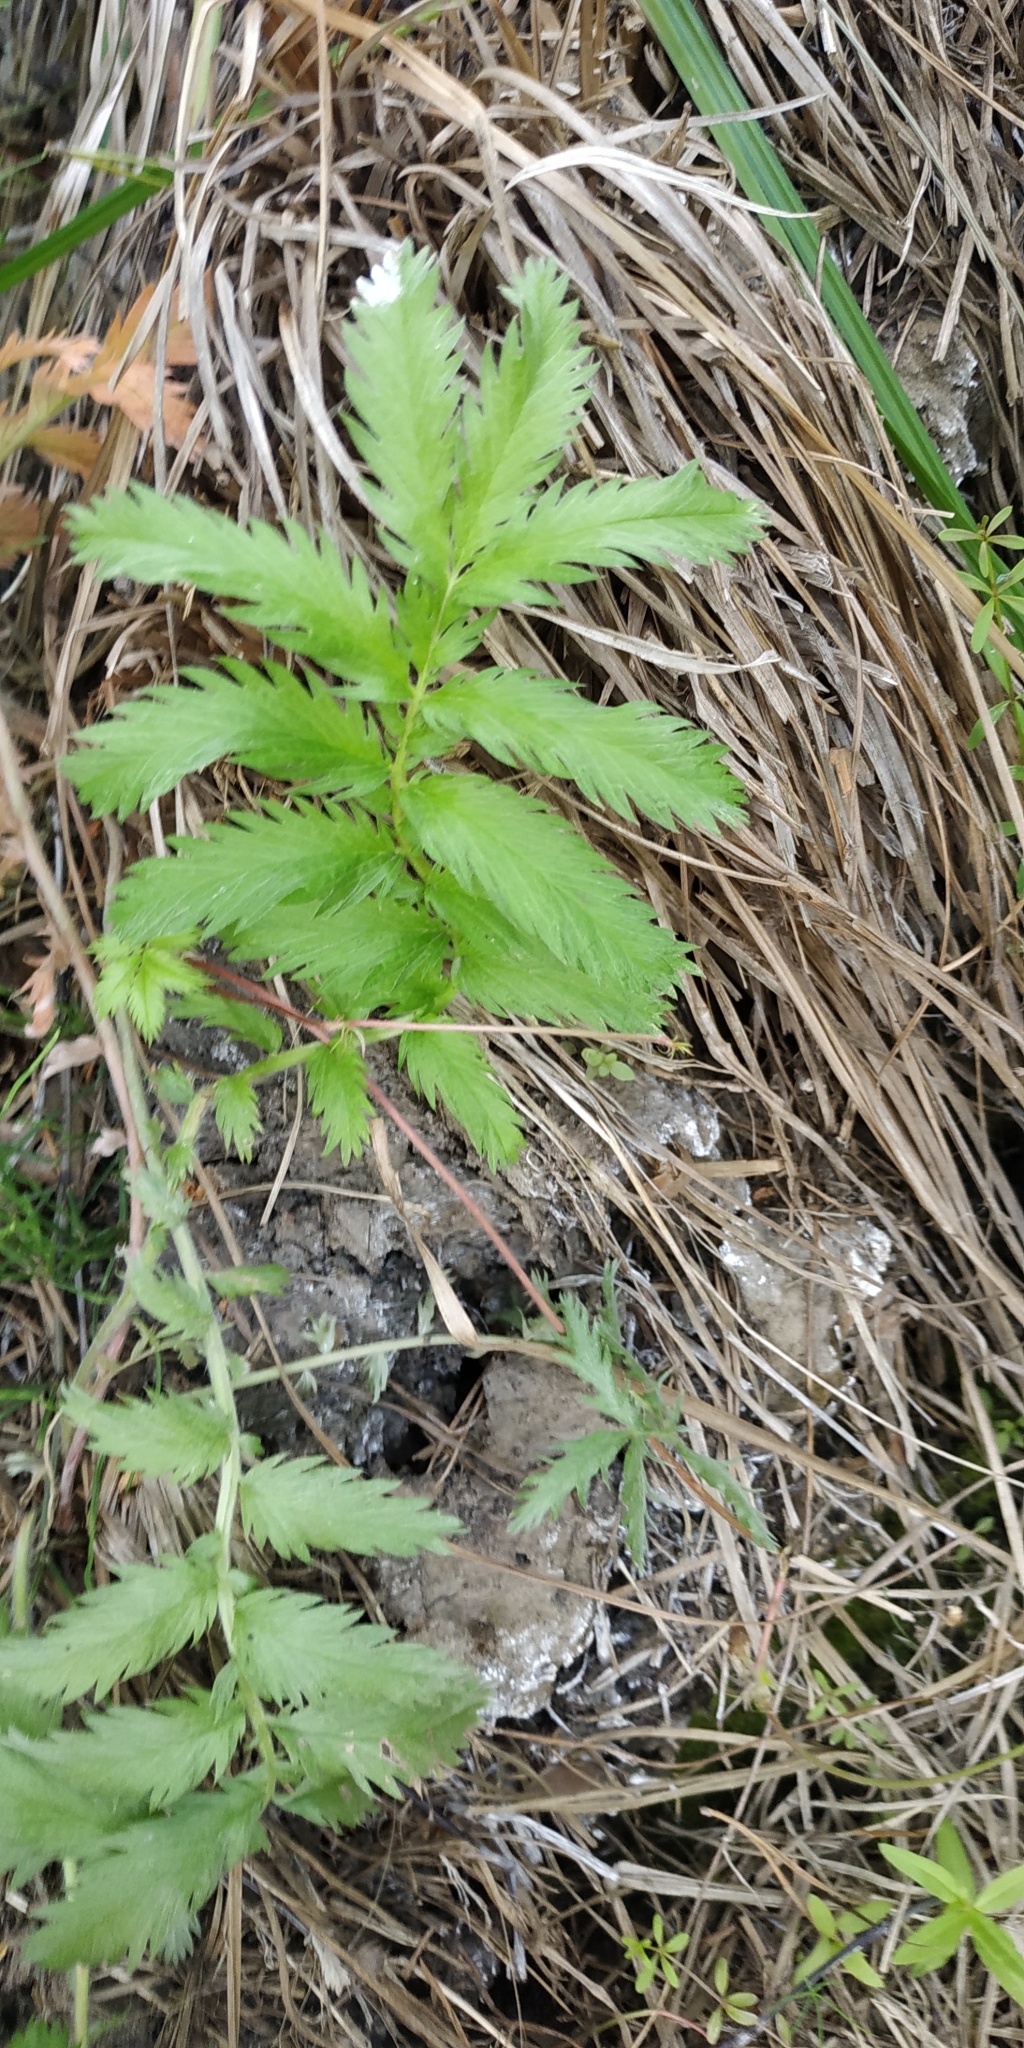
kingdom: Plantae
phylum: Tracheophyta
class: Magnoliopsida
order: Rosales
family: Rosaceae
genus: Argentina
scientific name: Argentina anserina
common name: Common silverweed
